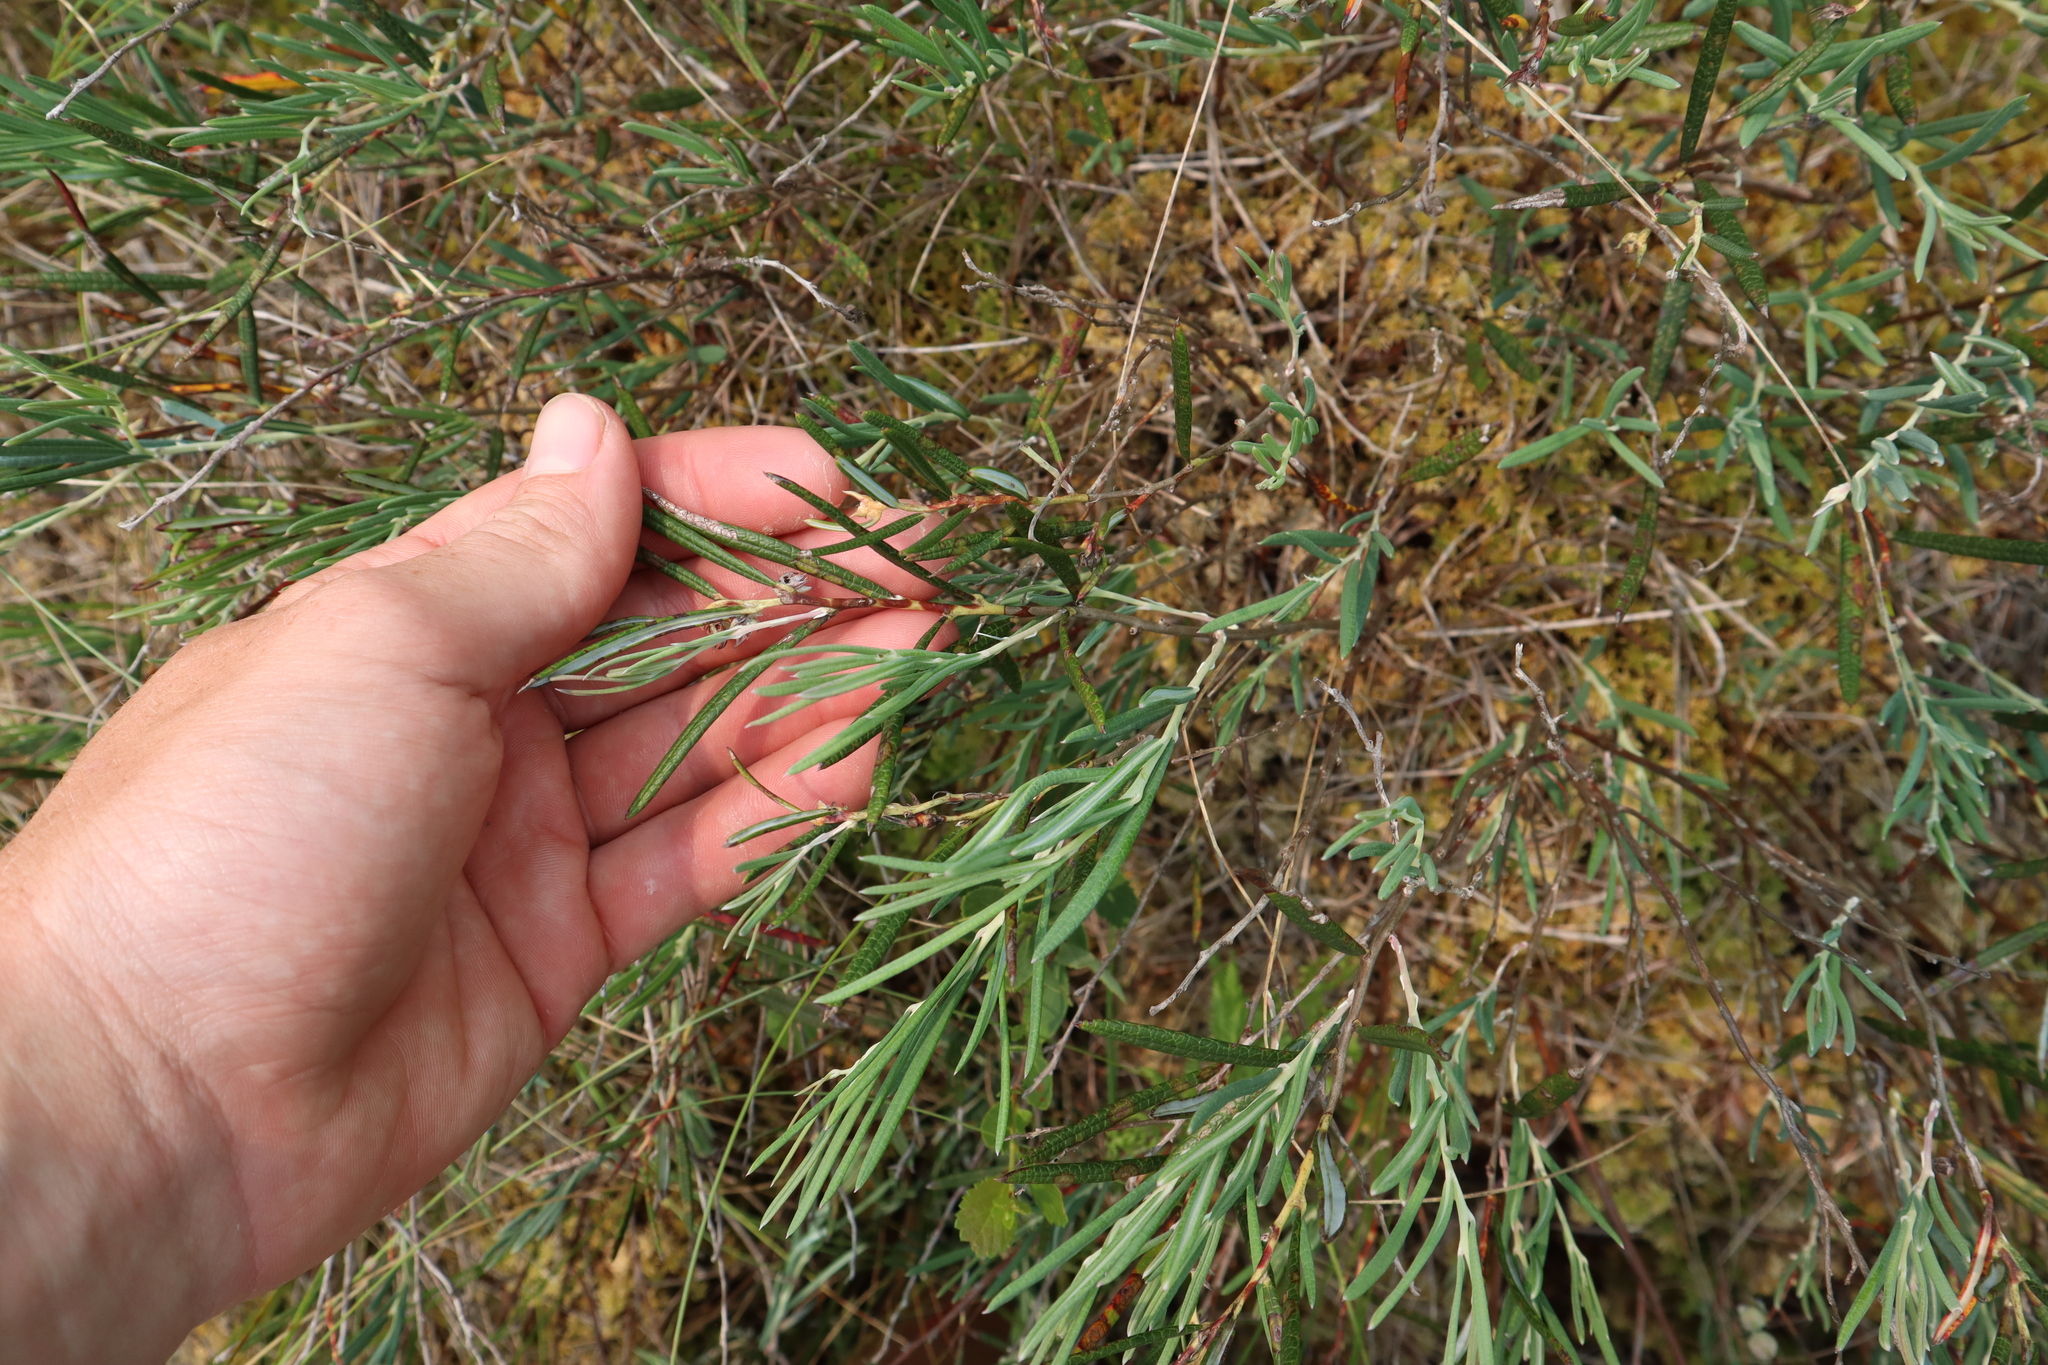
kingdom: Plantae
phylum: Tracheophyta
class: Magnoliopsida
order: Ericales
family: Ericaceae
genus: Andromeda
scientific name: Andromeda polifolia
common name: Bog-rosemary
